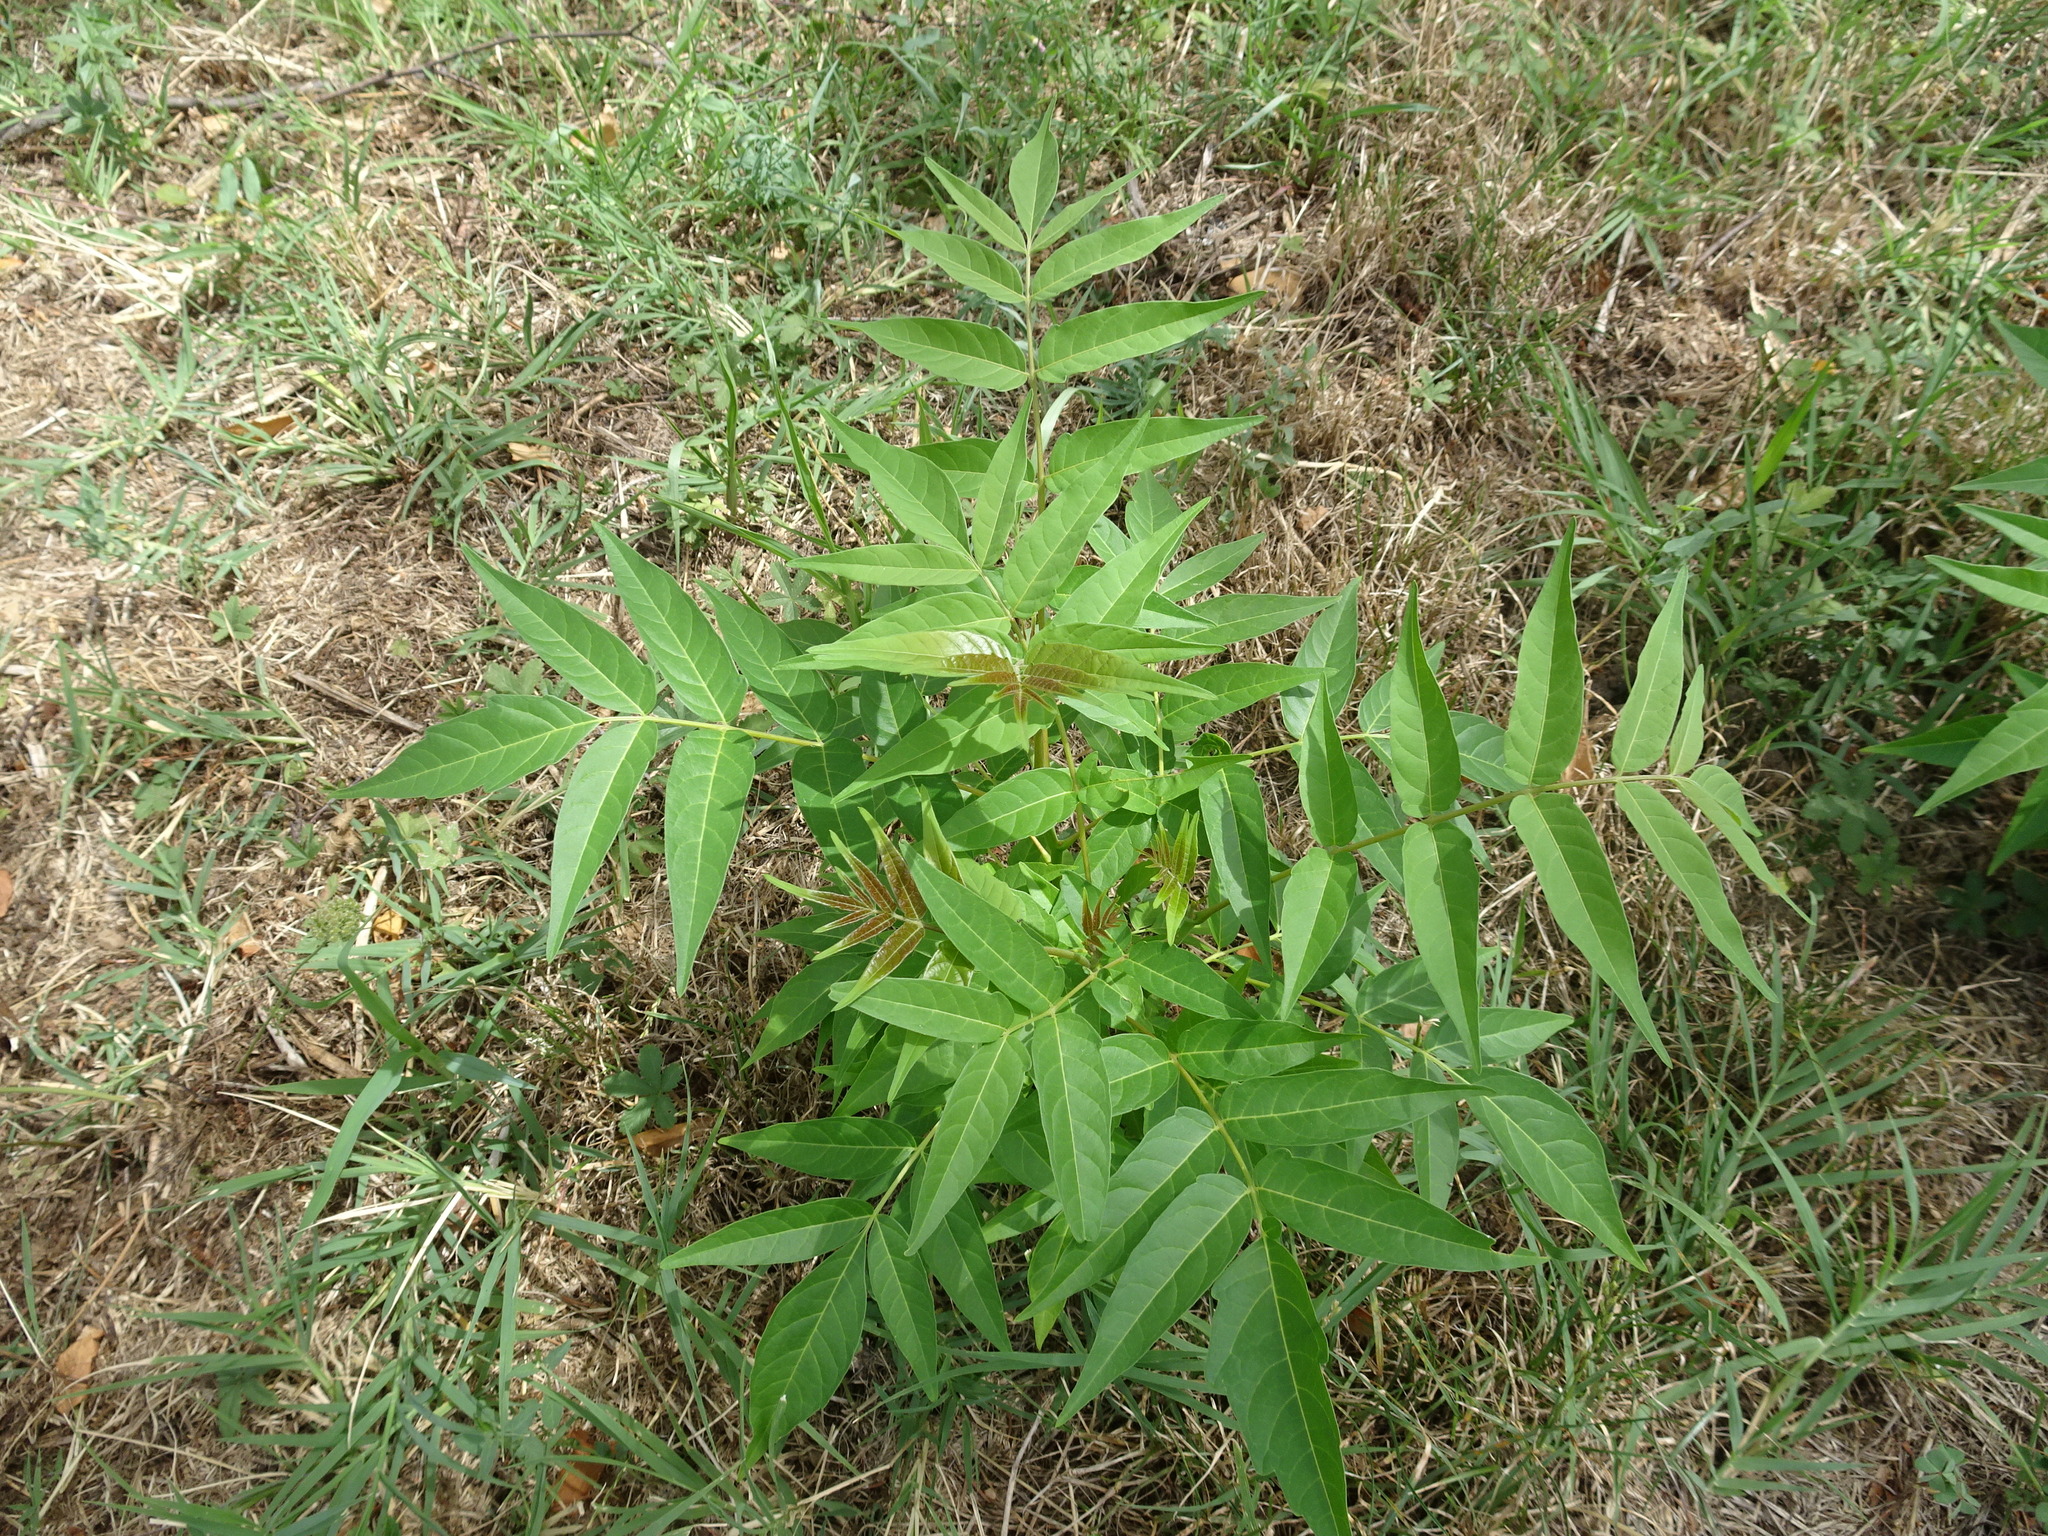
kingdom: Plantae
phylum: Tracheophyta
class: Magnoliopsida
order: Sapindales
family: Simaroubaceae
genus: Ailanthus
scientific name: Ailanthus altissima
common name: Tree-of-heaven
